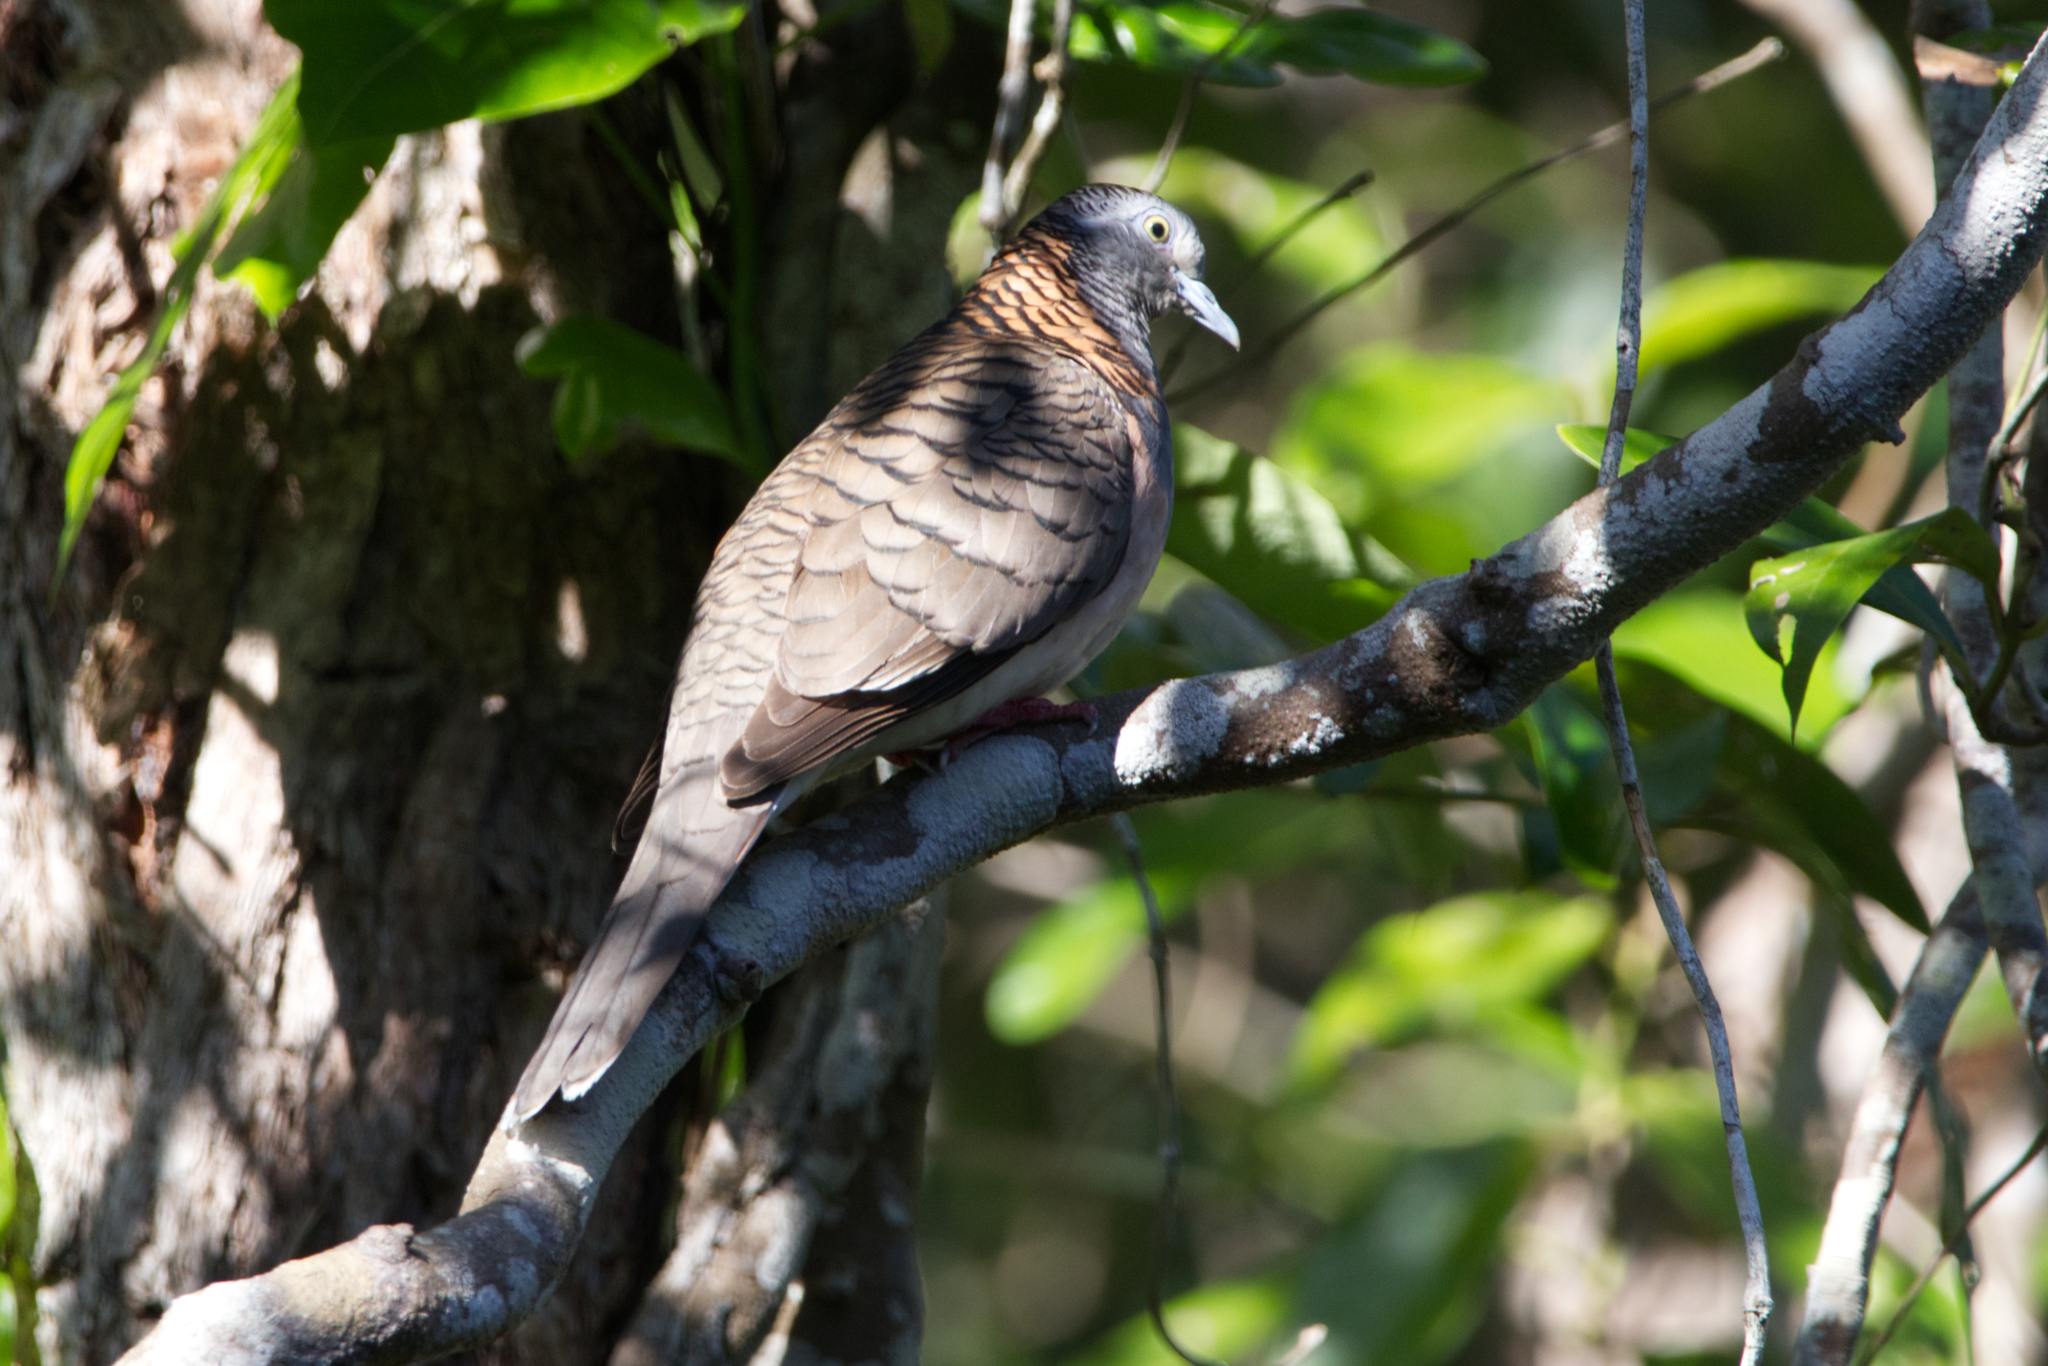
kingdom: Animalia
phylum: Chordata
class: Aves
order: Columbiformes
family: Columbidae
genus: Geopelia
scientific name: Geopelia humeralis
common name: Bar-shouldered dove
